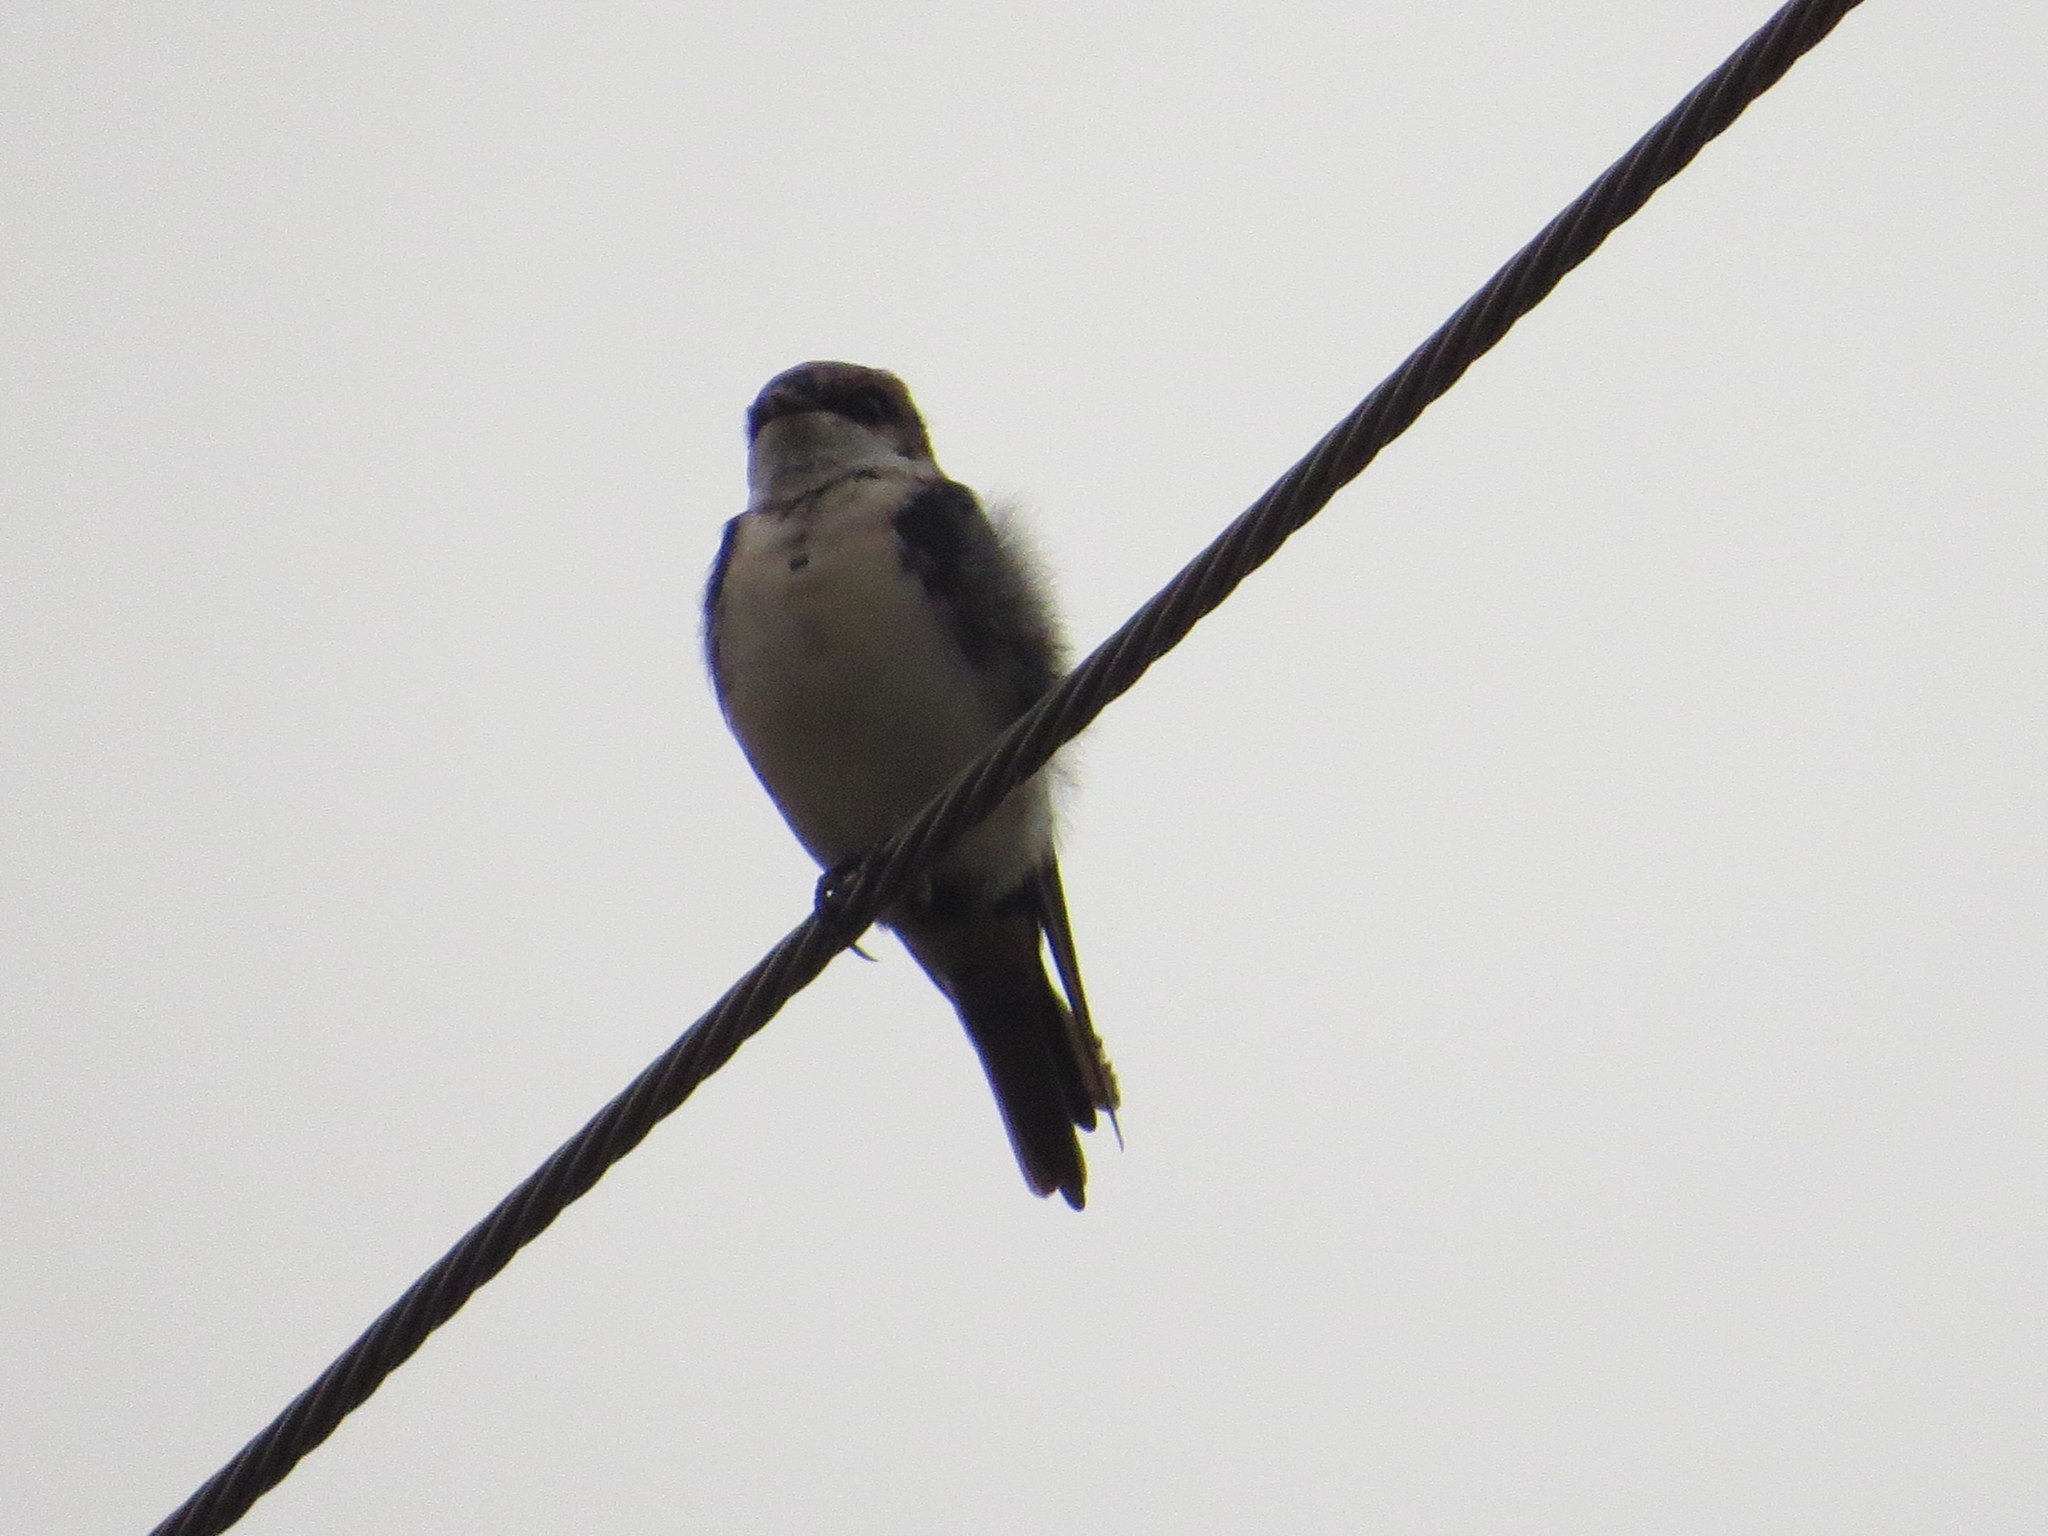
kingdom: Animalia
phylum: Chordata
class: Aves
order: Passeriformes
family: Hirundinidae
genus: Notiochelidon
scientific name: Notiochelidon cyanoleuca
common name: Blue-and-white swallow
